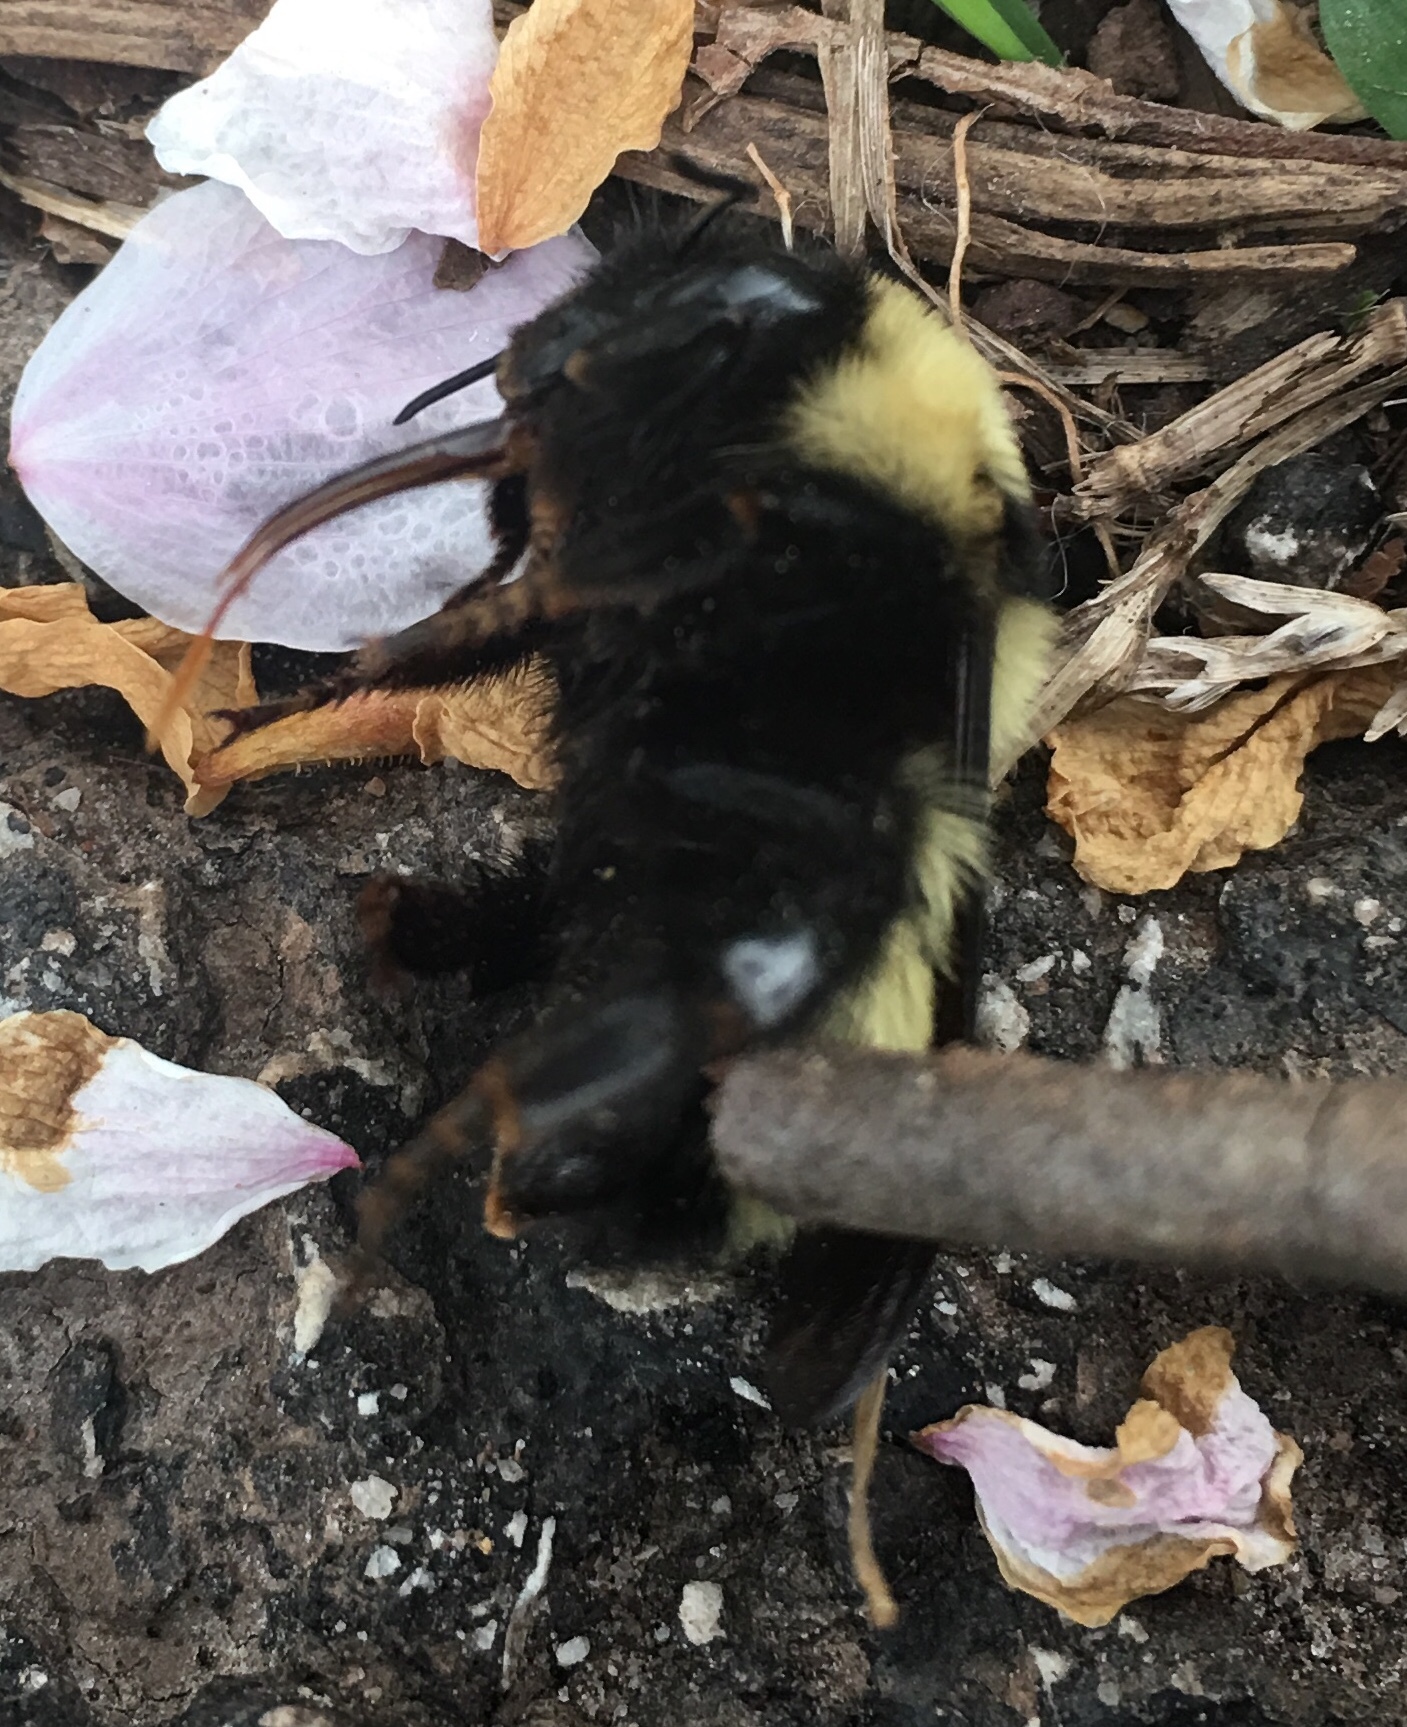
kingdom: Animalia
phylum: Arthropoda
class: Insecta
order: Hymenoptera
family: Apidae
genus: Bombus
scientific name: Bombus fervidus
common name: Yellow bumble bee
